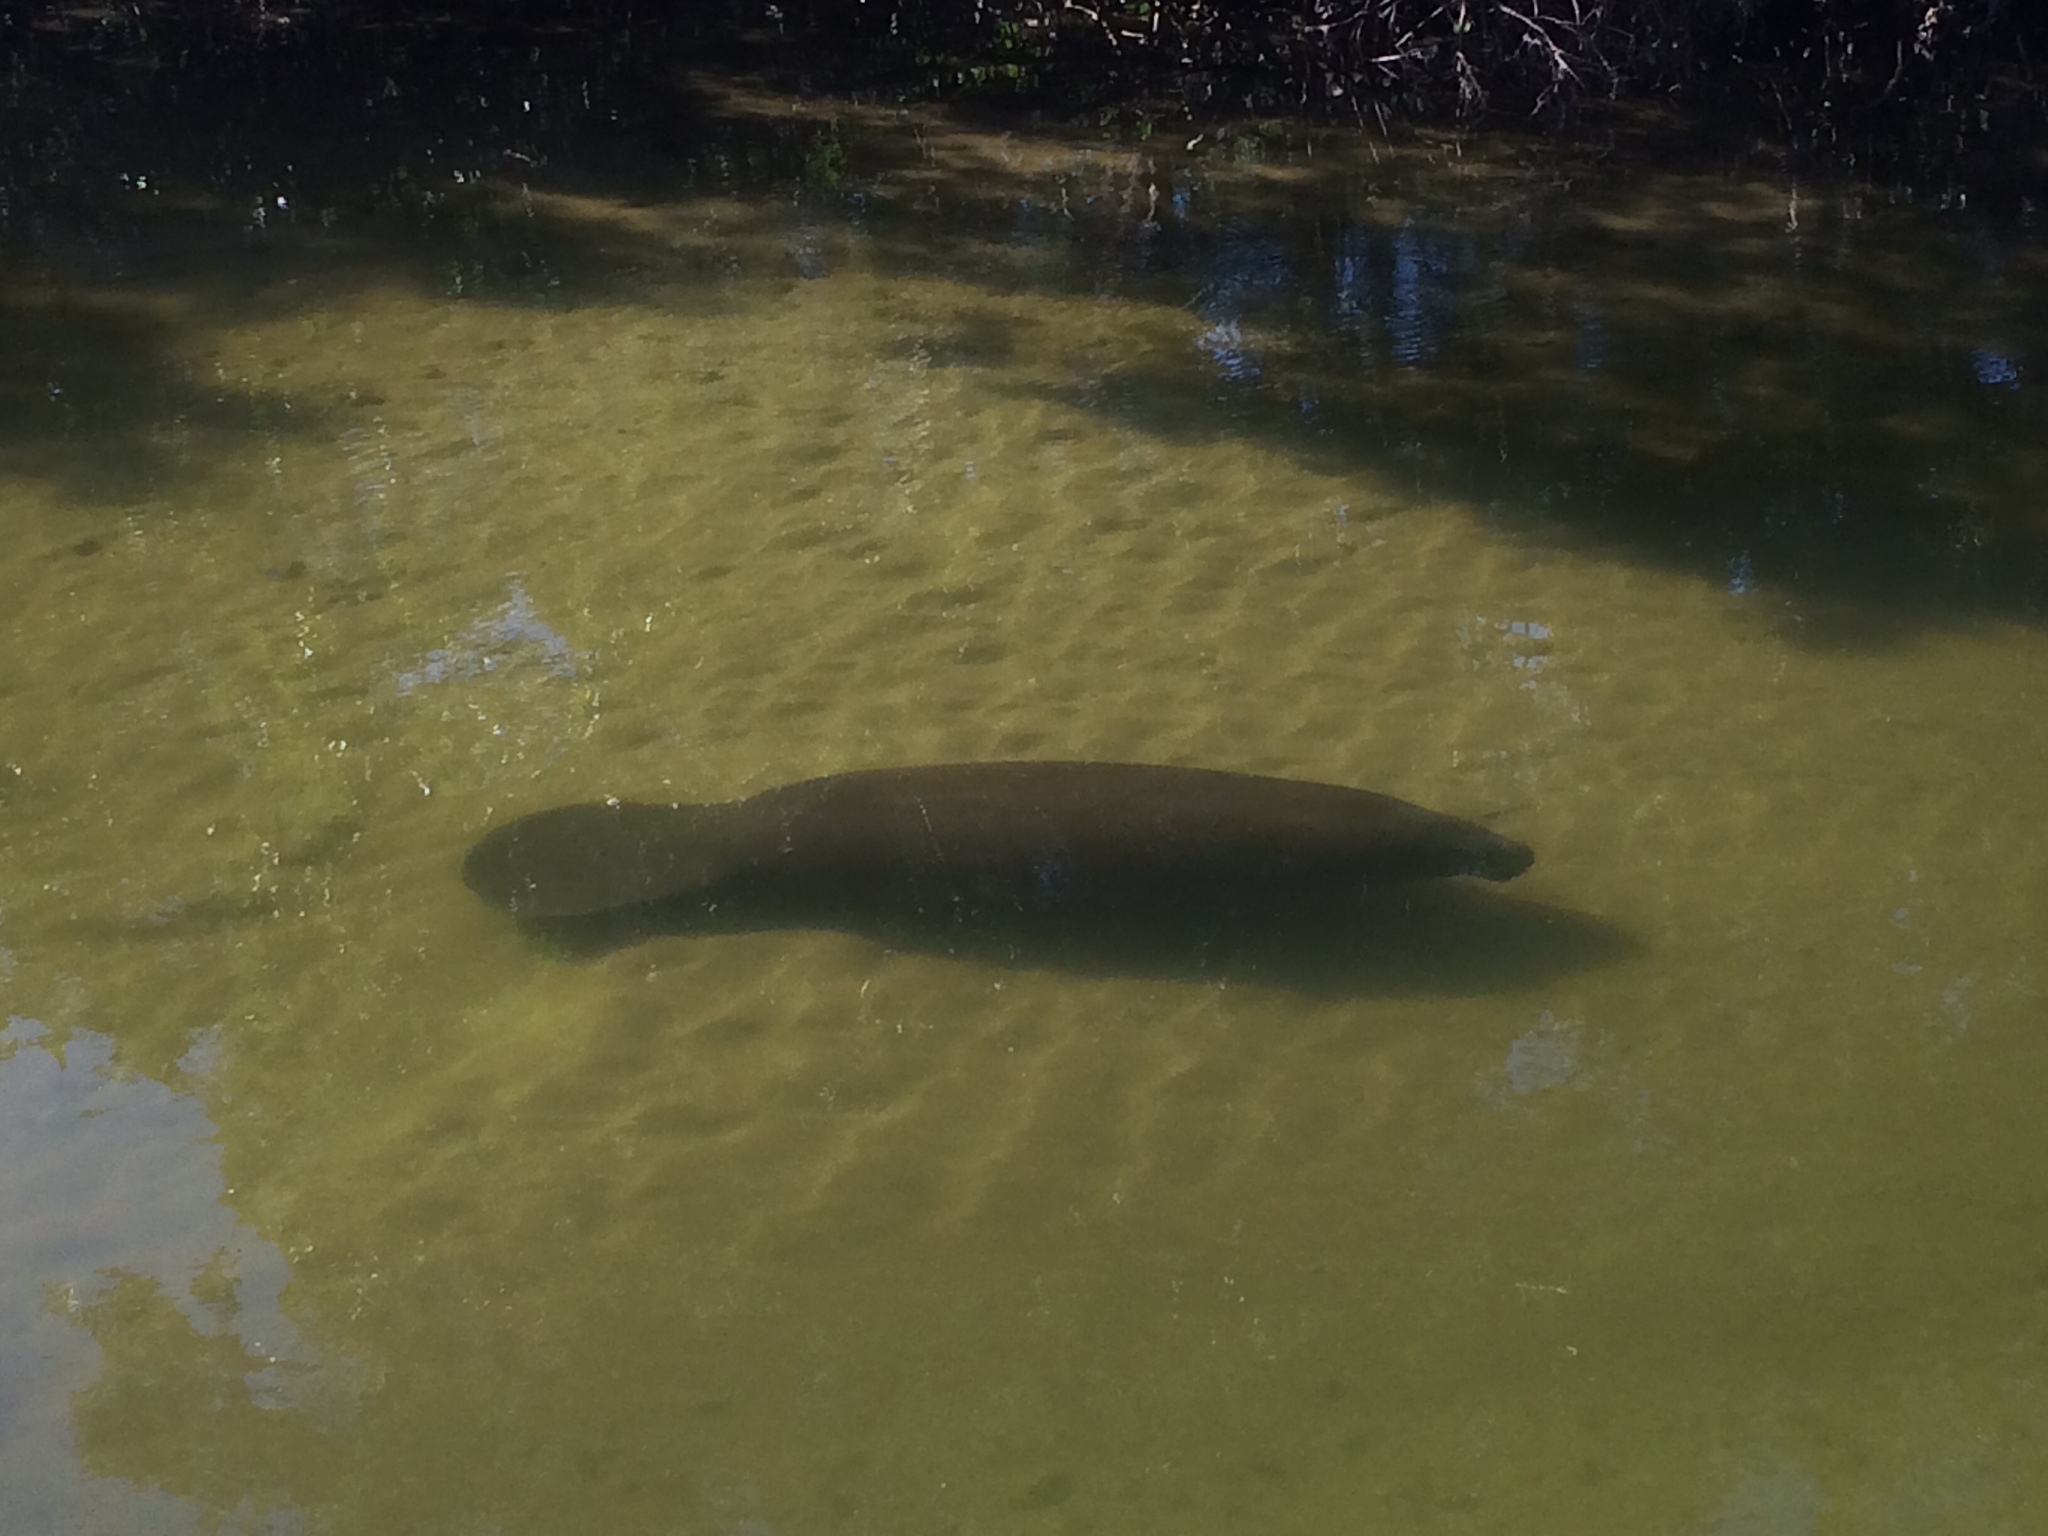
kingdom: Animalia
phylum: Chordata
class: Mammalia
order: Sirenia
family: Trichechidae
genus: Trichechus
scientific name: Trichechus manatus
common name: West indian manatee
